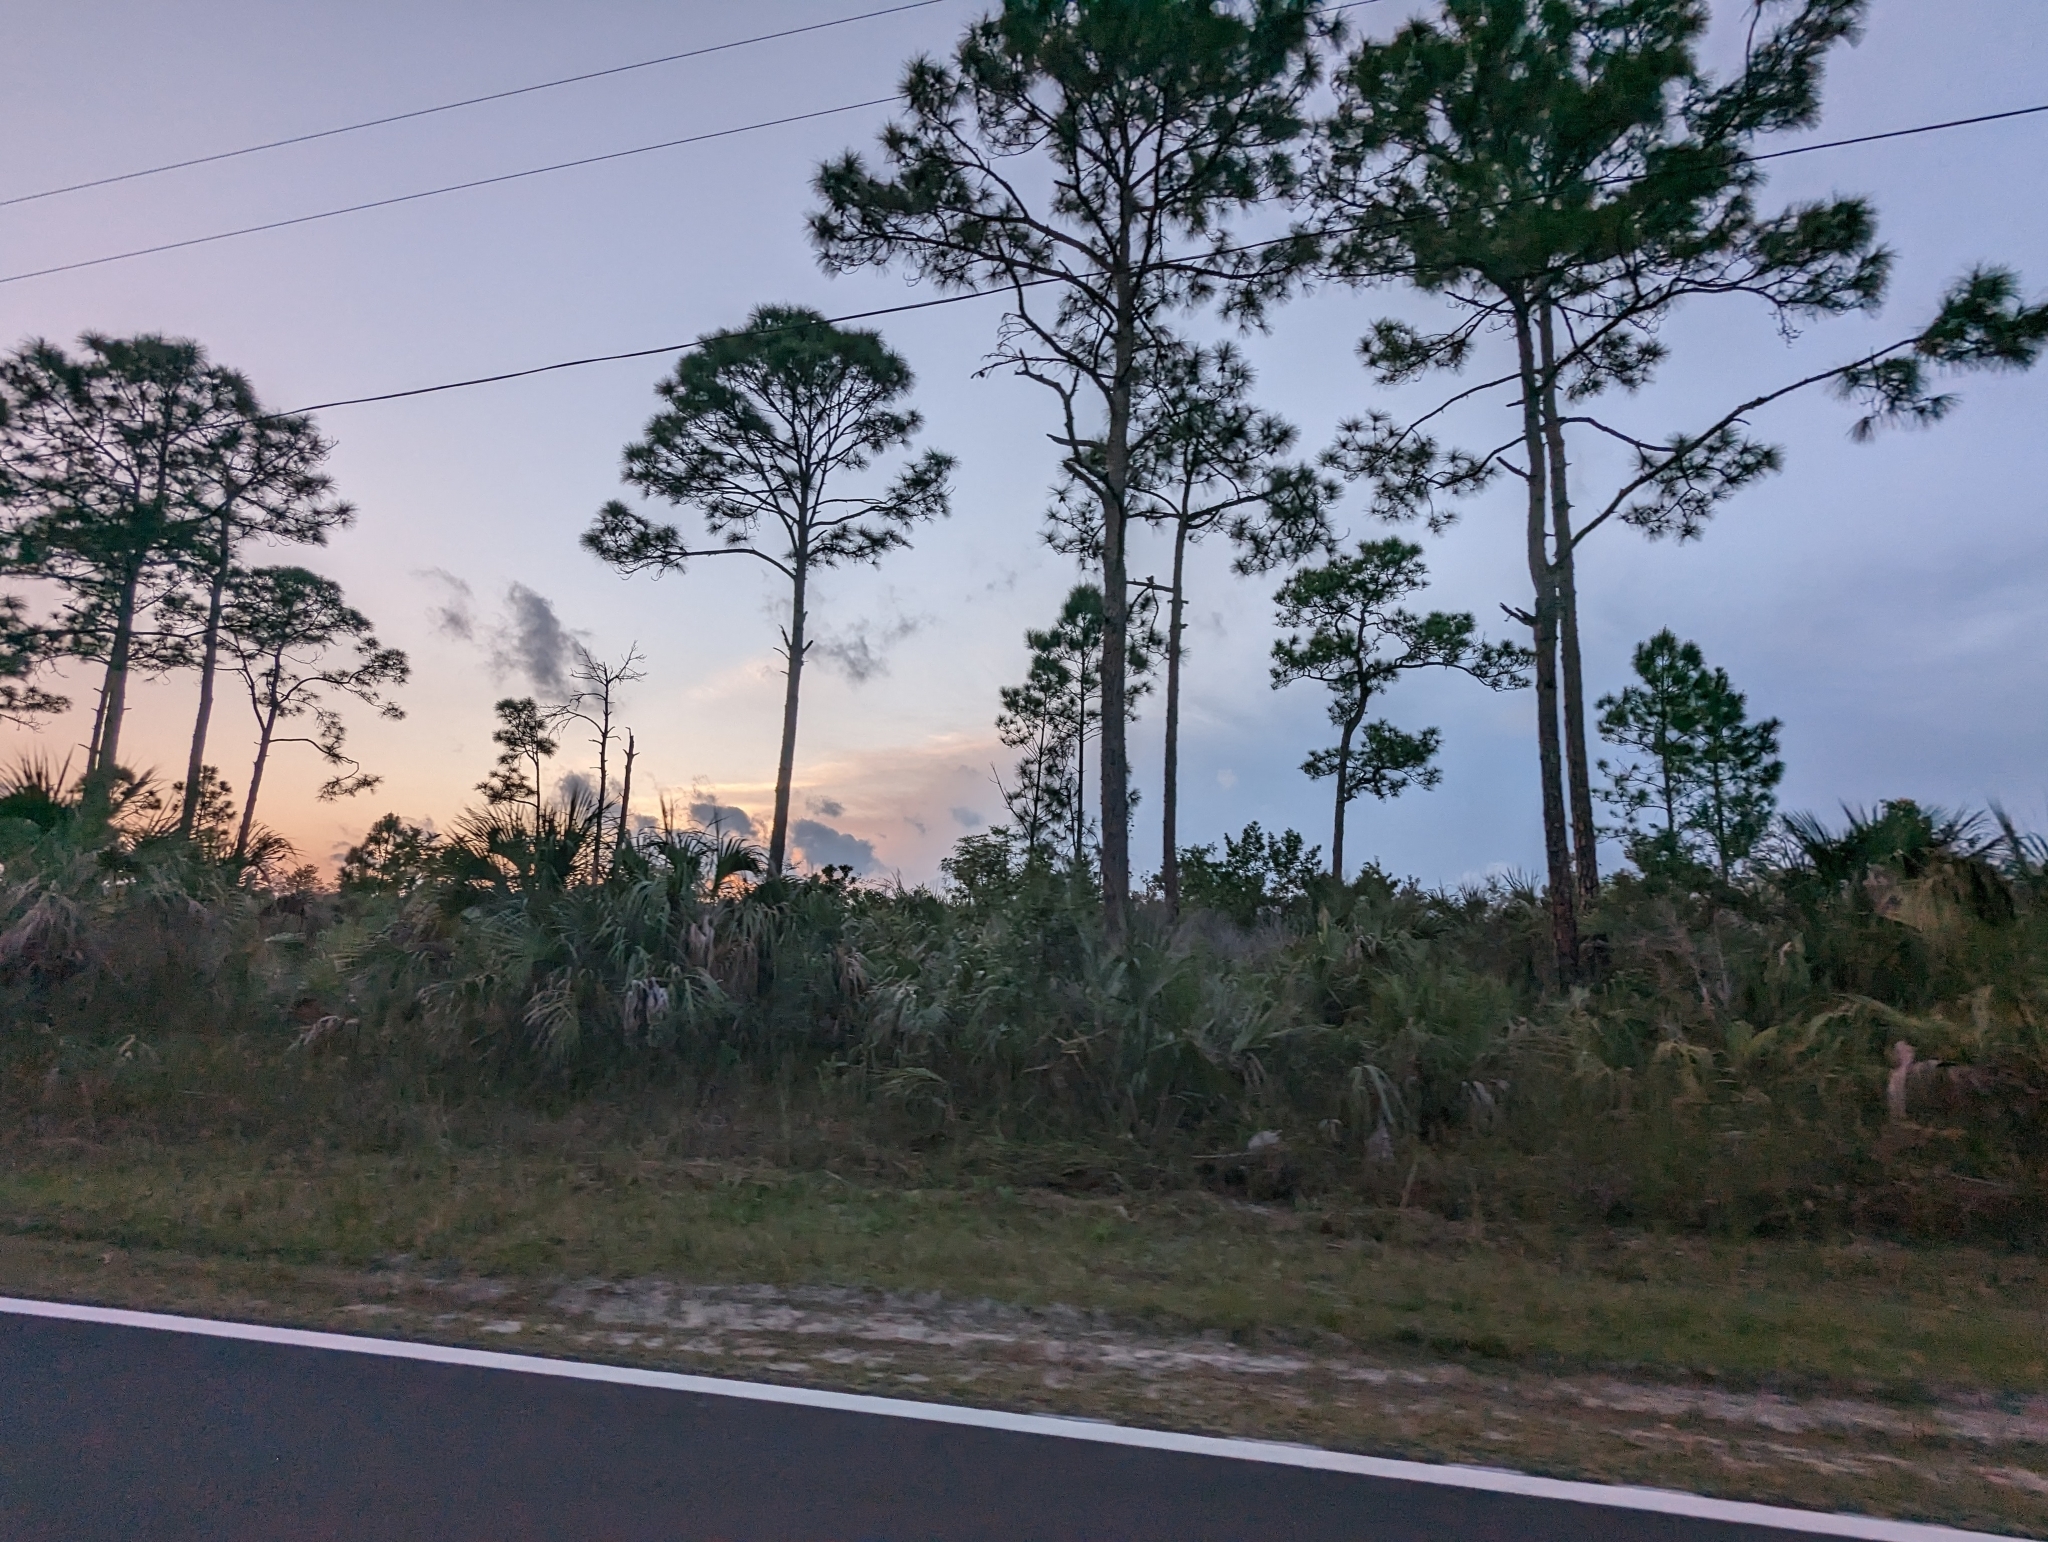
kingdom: Plantae
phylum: Tracheophyta
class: Pinopsida
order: Pinales
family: Pinaceae
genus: Pinus
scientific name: Pinus elliottii
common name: Slash pine
